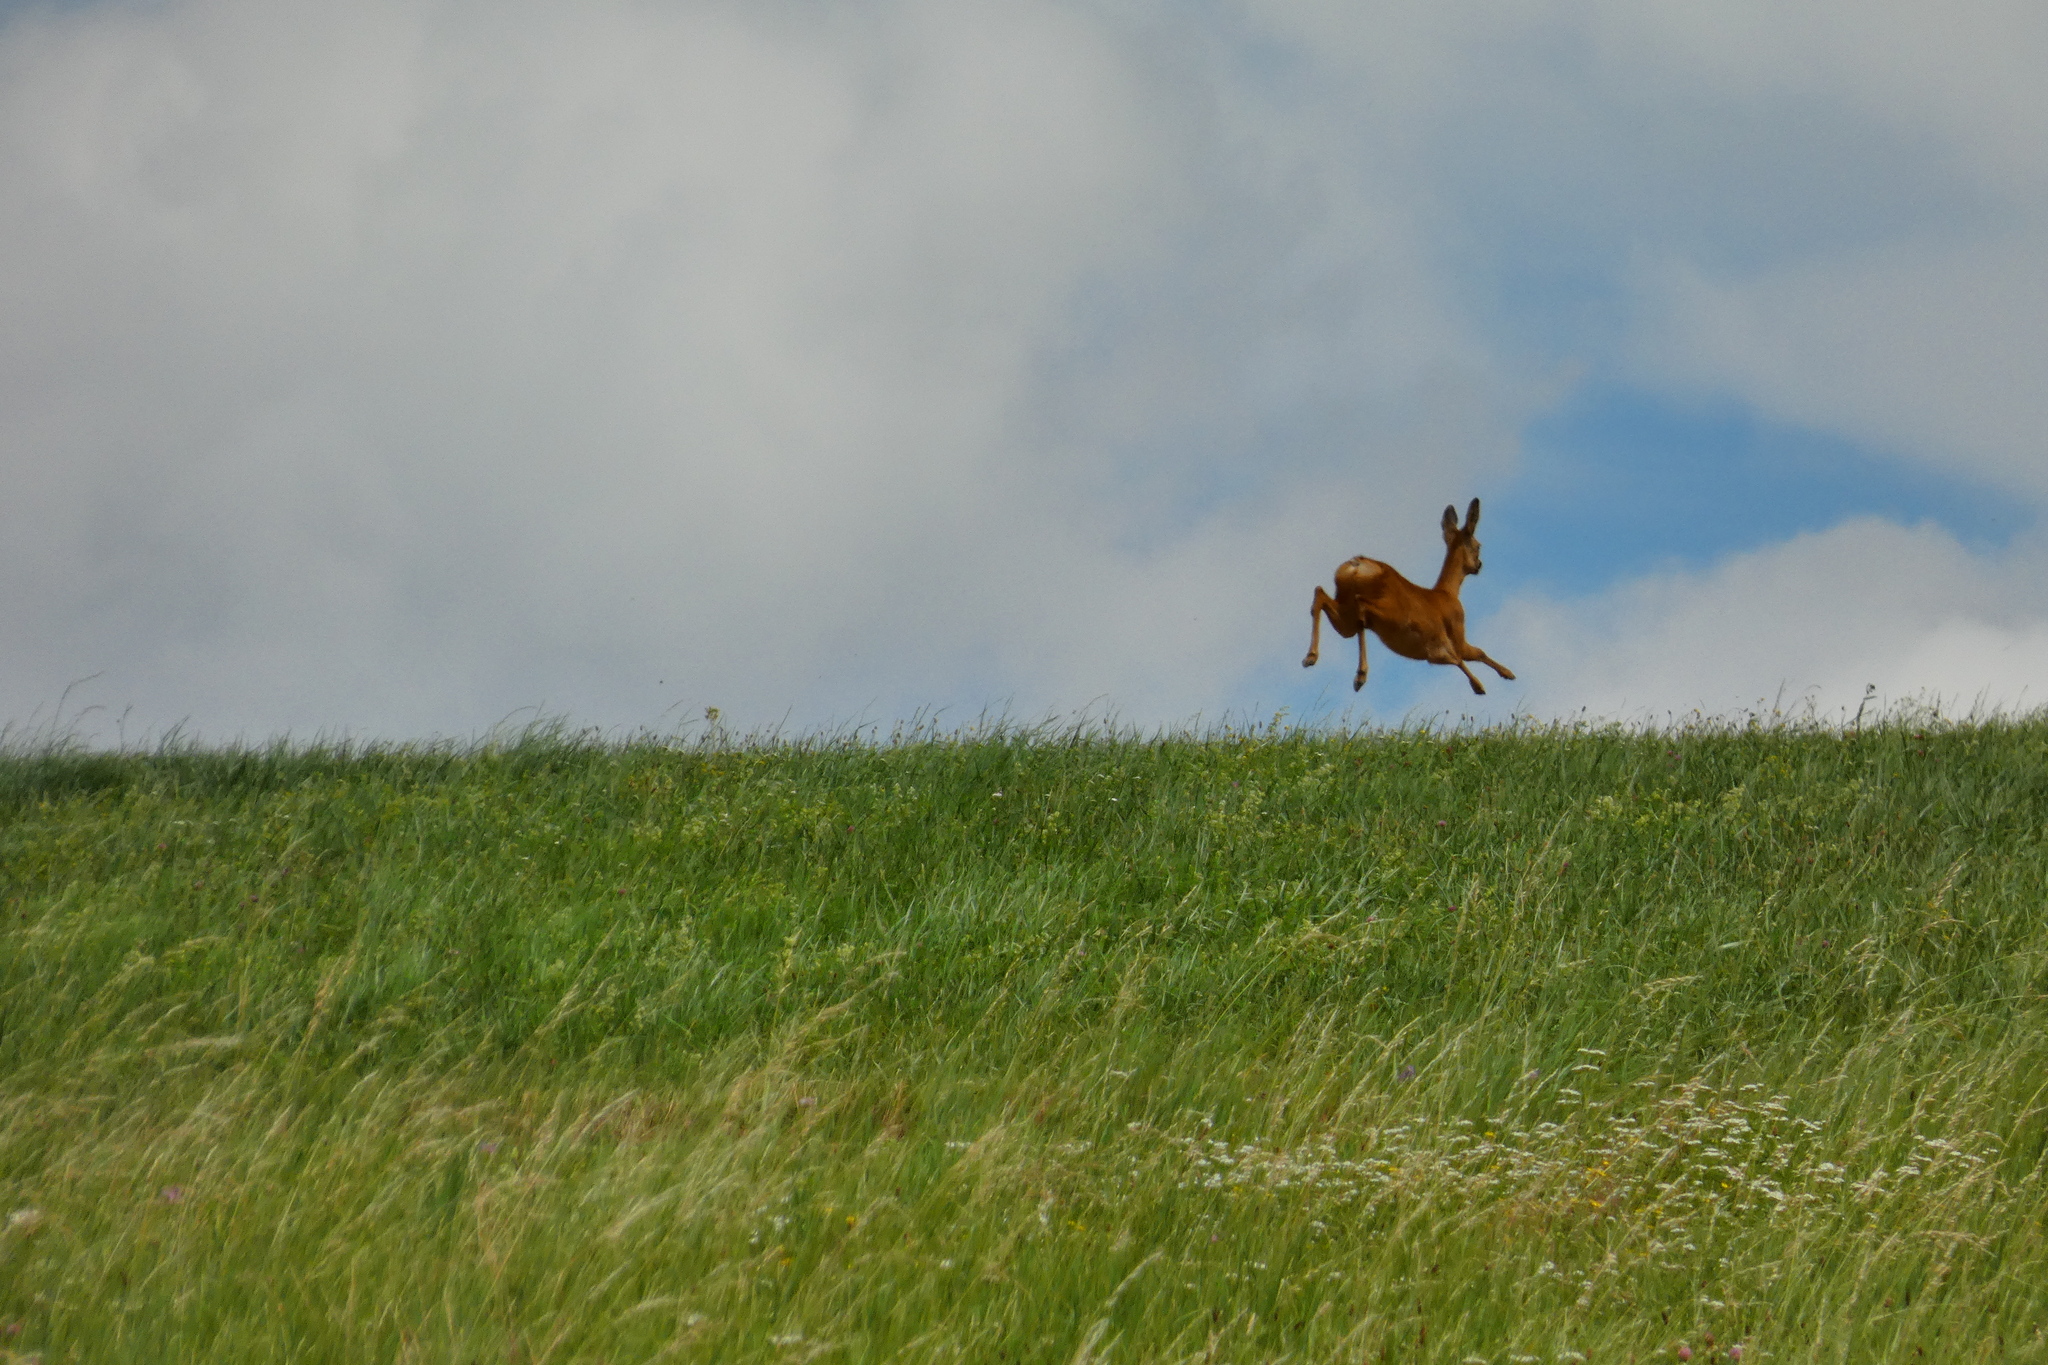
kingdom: Animalia
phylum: Chordata
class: Mammalia
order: Artiodactyla
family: Cervidae
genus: Capreolus
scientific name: Capreolus capreolus
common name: Western roe deer
